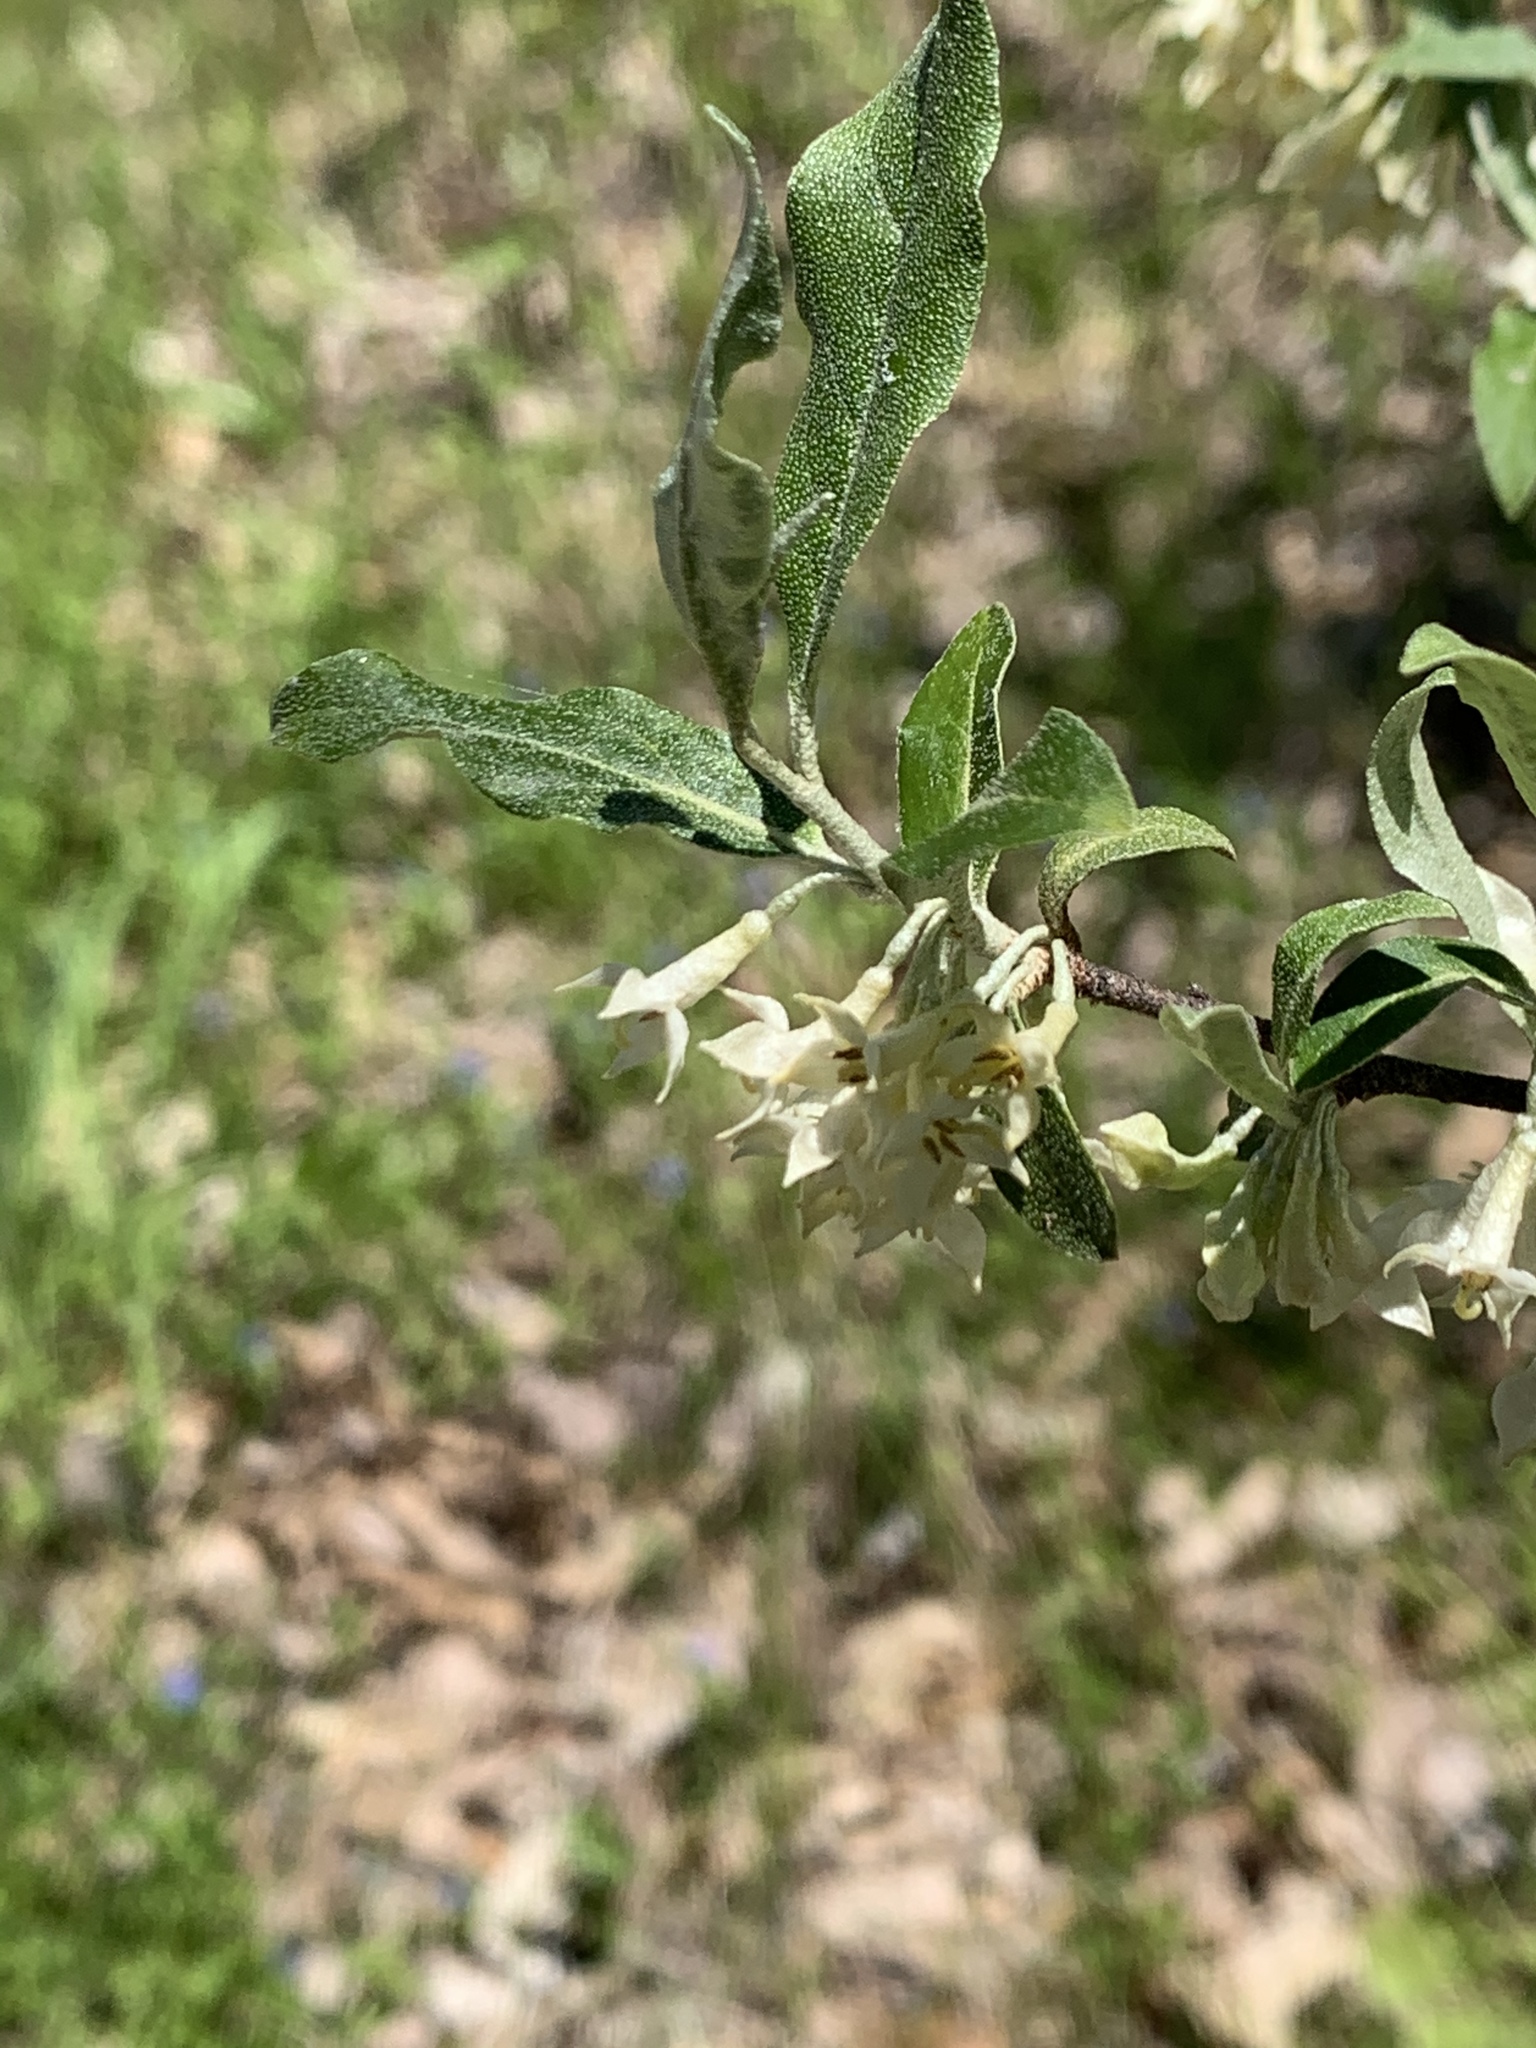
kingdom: Plantae
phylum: Tracheophyta
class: Magnoliopsida
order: Rosales
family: Elaeagnaceae
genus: Elaeagnus
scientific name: Elaeagnus umbellata
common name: Autumn olive
